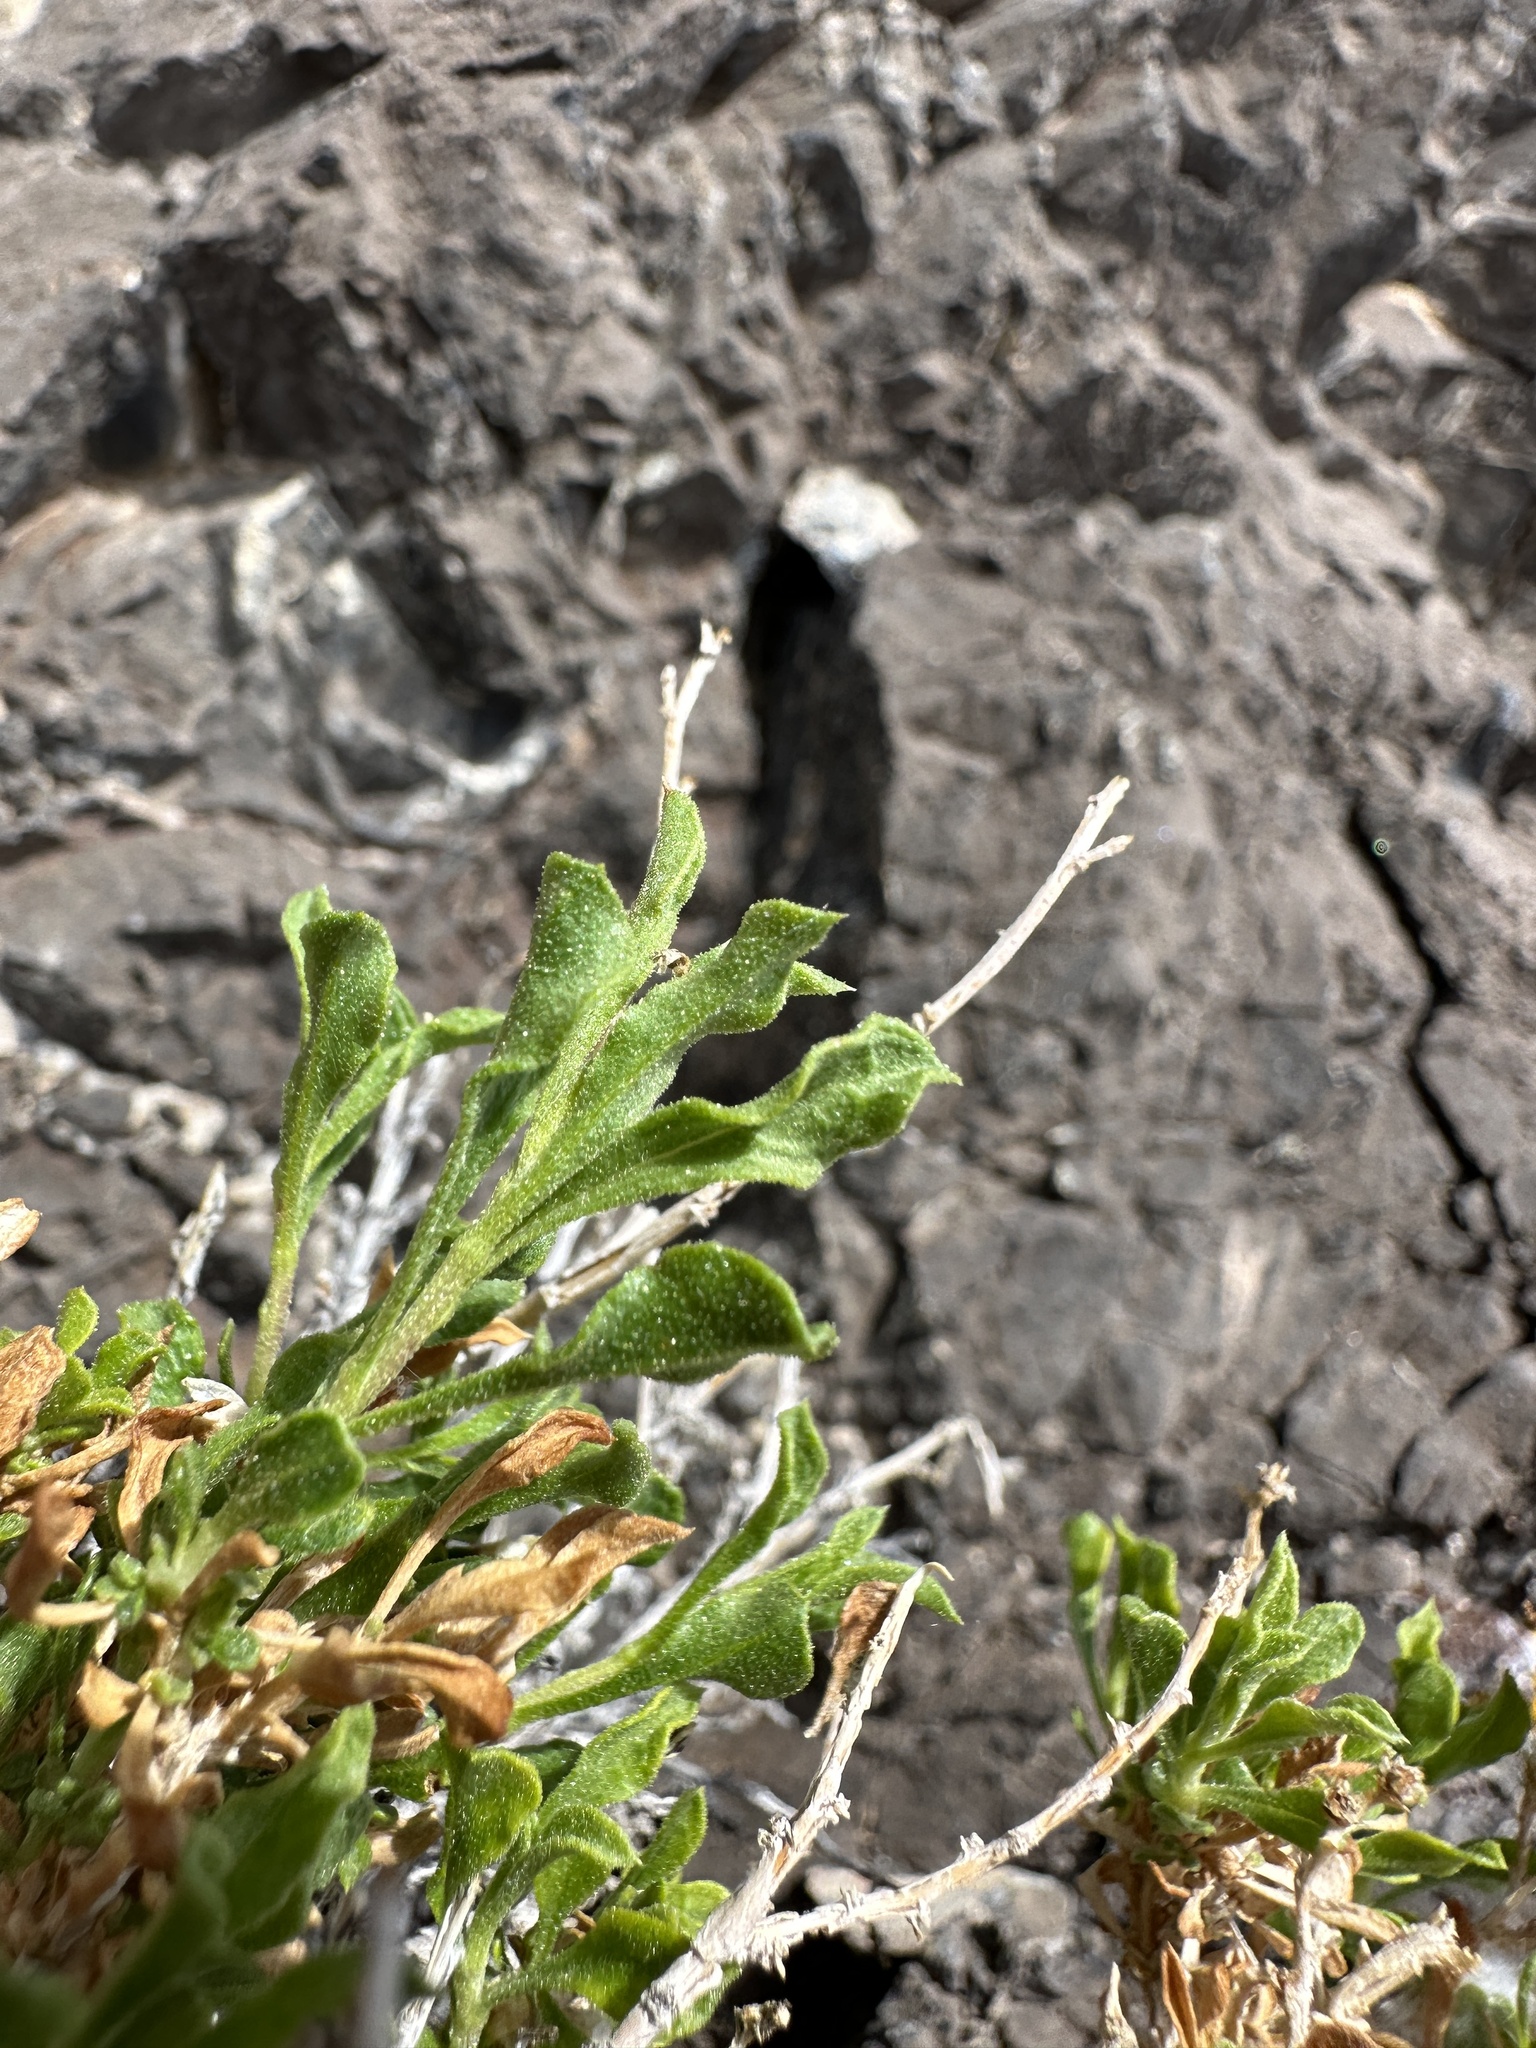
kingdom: Plantae
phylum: Tracheophyta
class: Magnoliopsida
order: Asterales
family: Asteraceae
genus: Ericameria
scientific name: Ericameria cervina
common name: Antelope goldenbush
